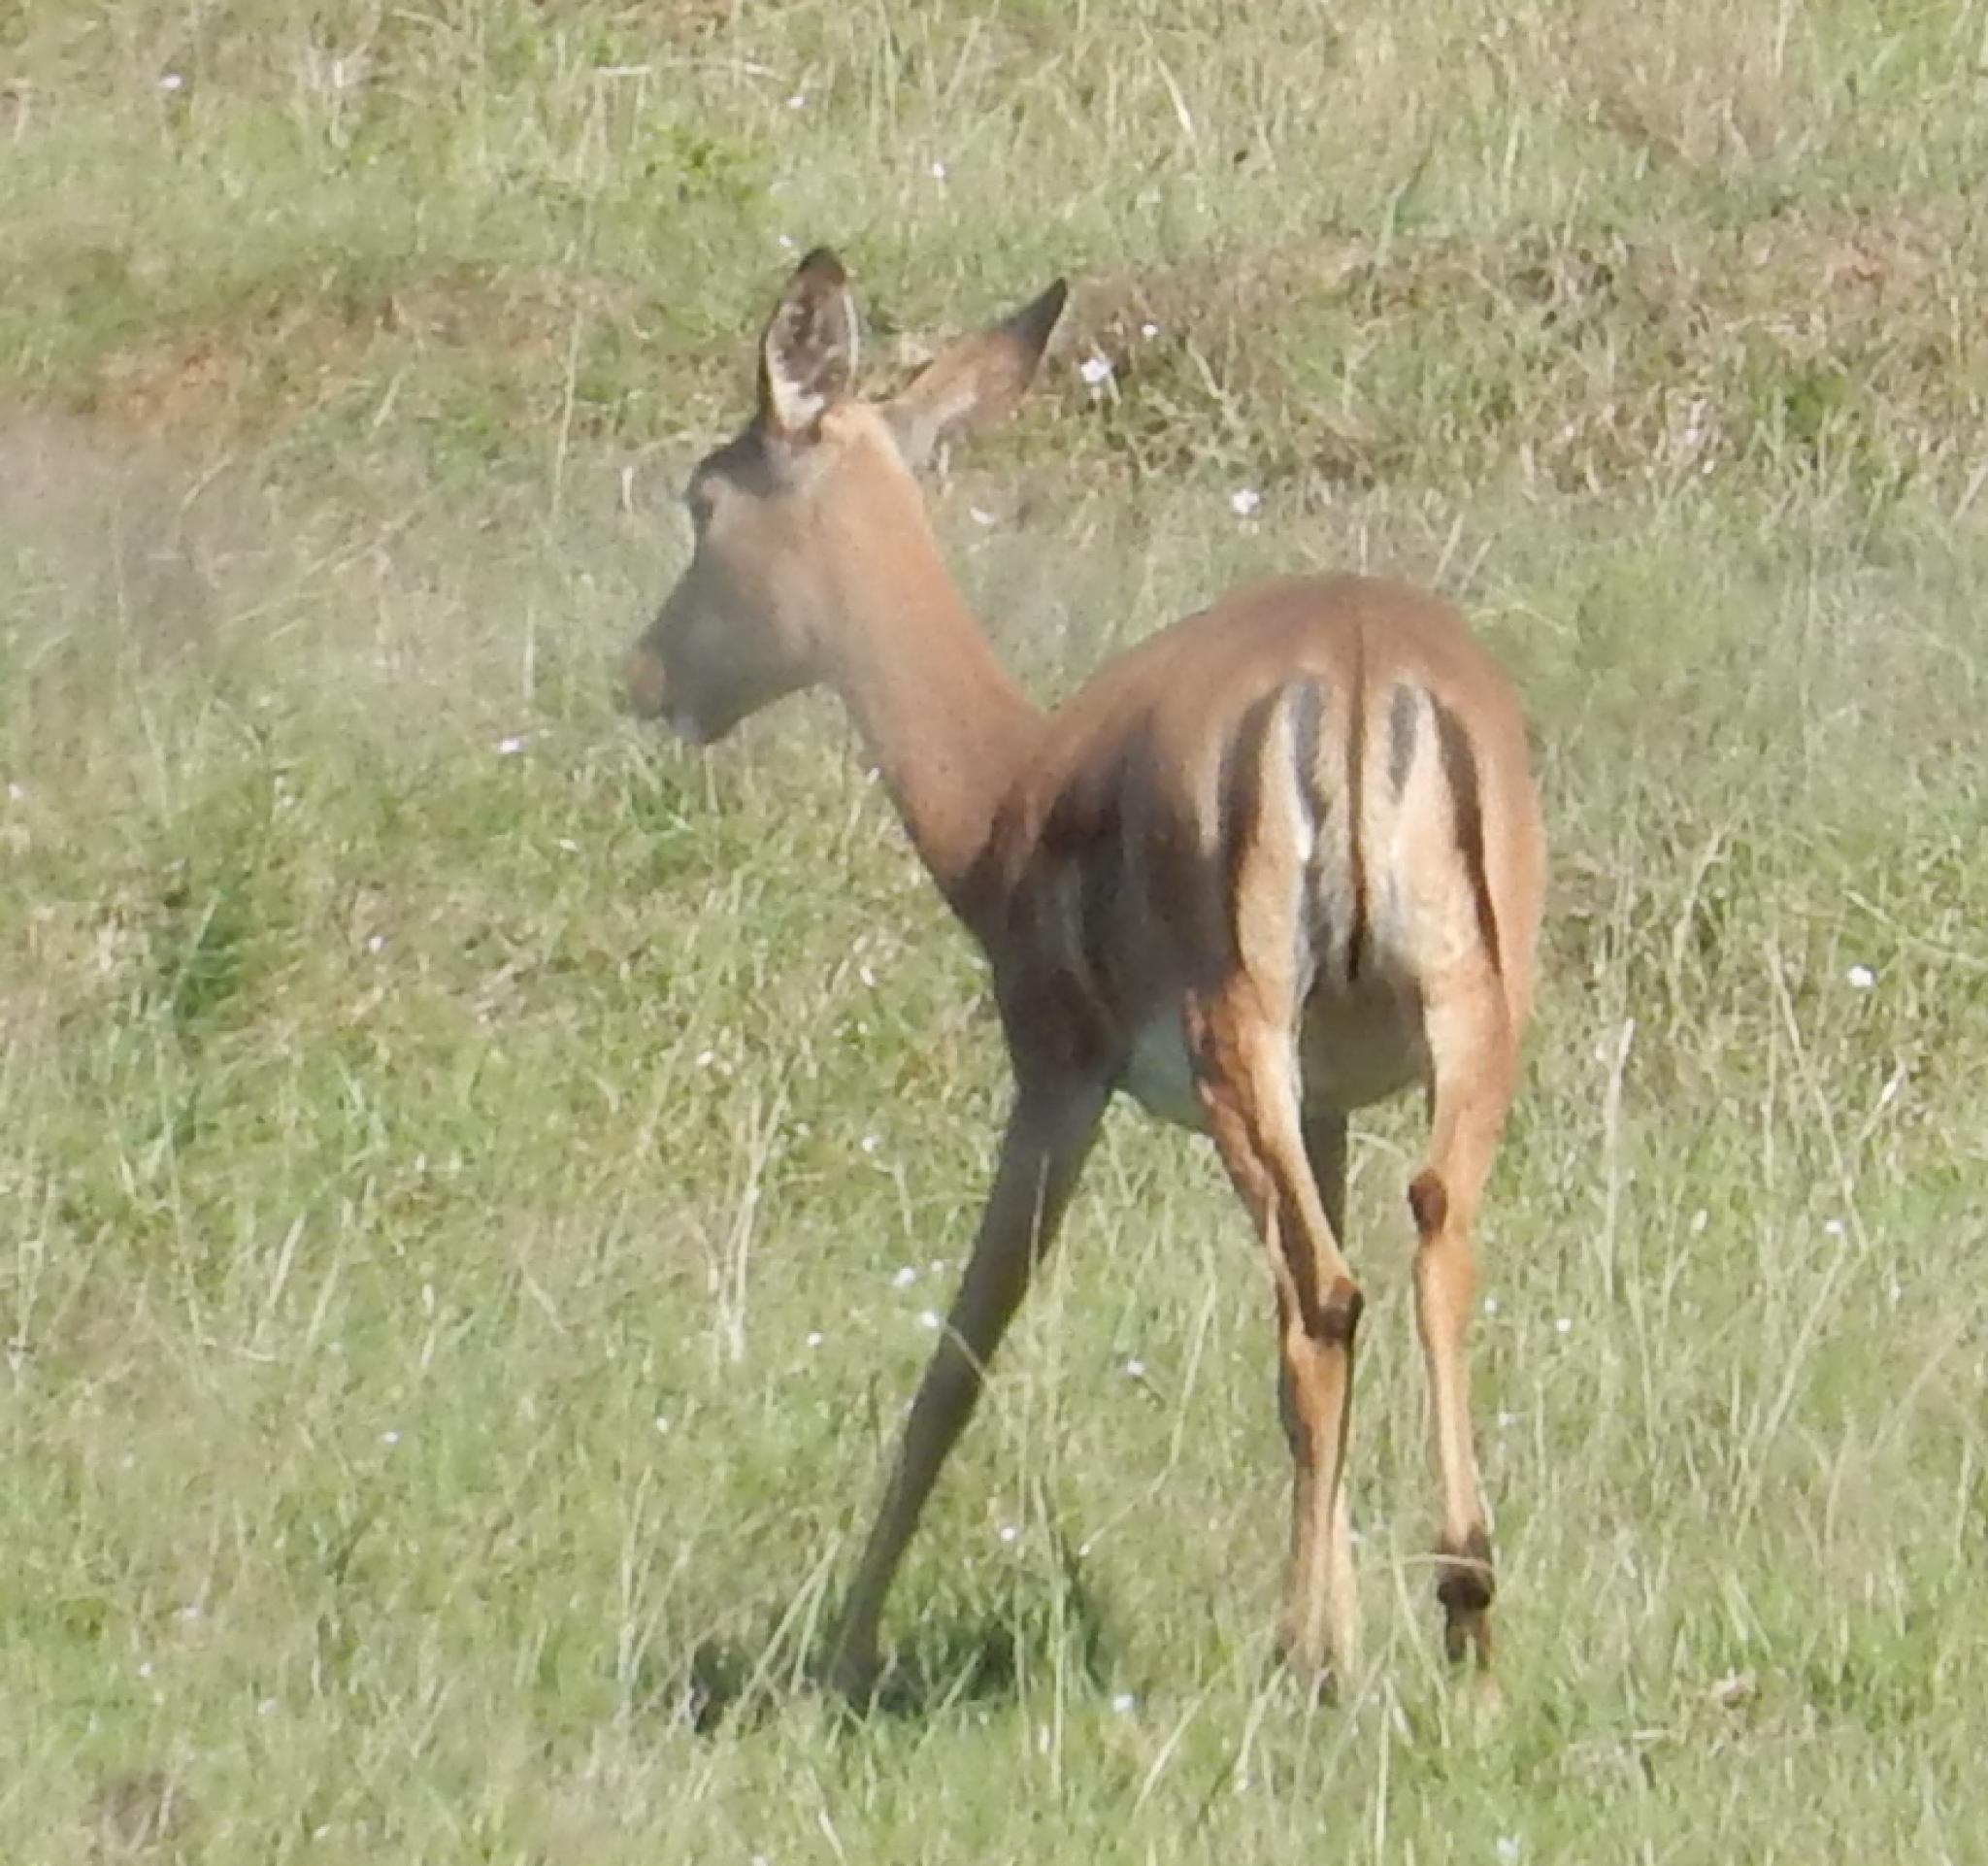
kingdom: Animalia
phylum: Chordata
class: Mammalia
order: Artiodactyla
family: Bovidae
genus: Aepyceros
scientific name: Aepyceros melampus
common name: Impala
